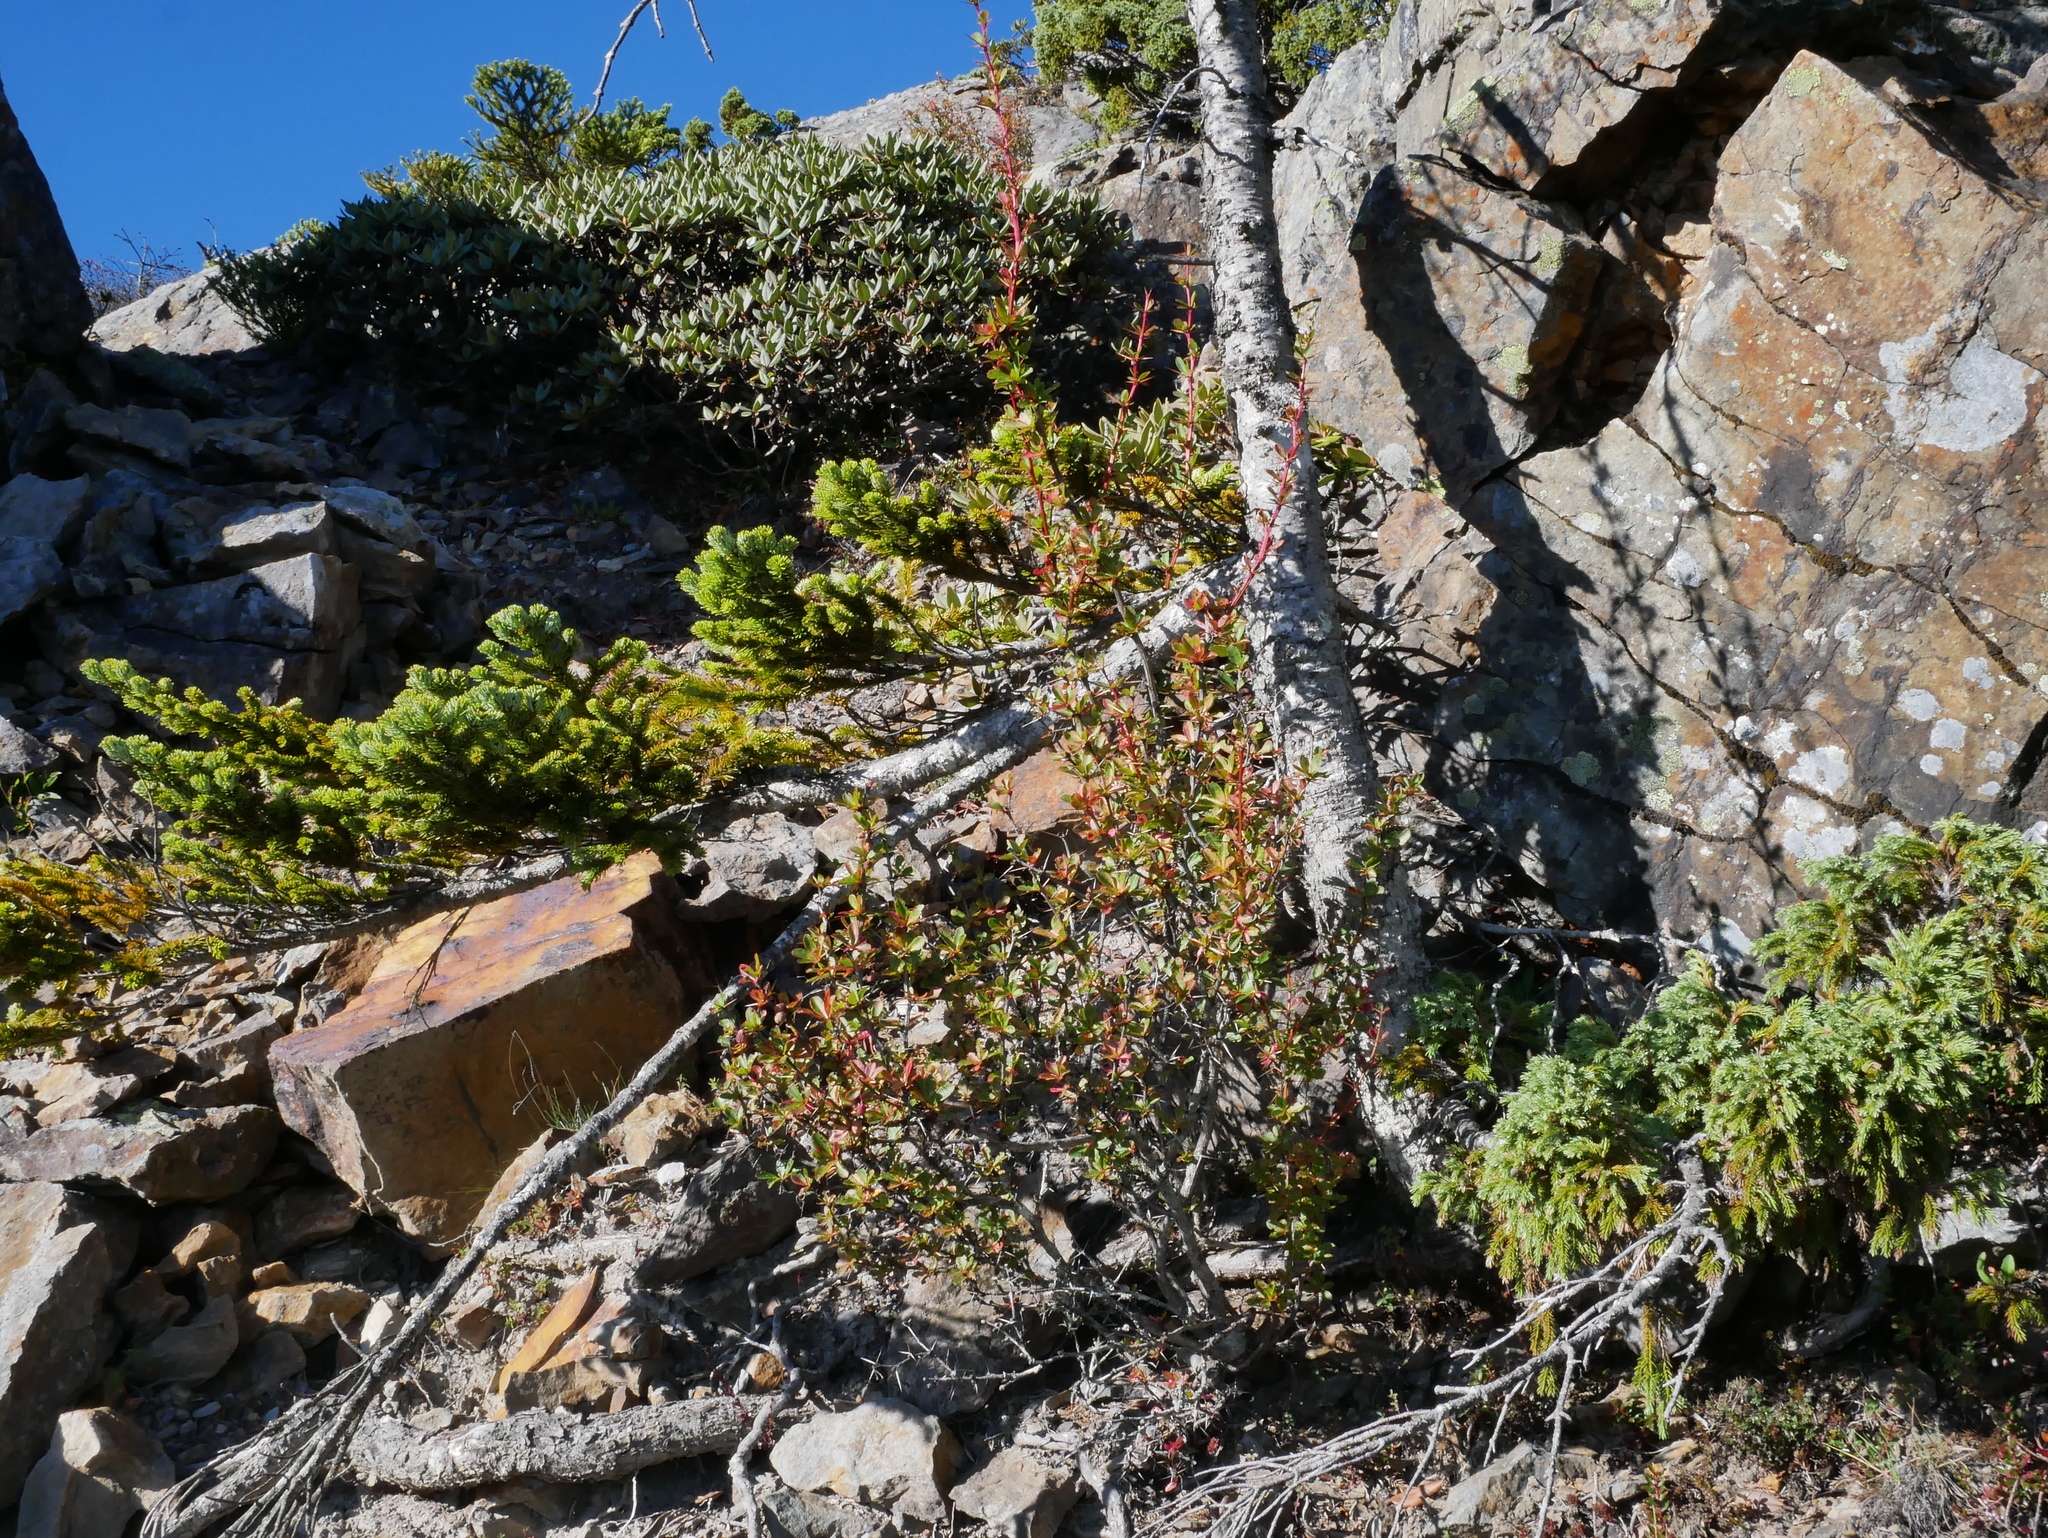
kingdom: Plantae
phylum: Tracheophyta
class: Magnoliopsida
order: Ranunculales
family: Berberidaceae
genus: Berberis
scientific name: Berberis morrisonensis
